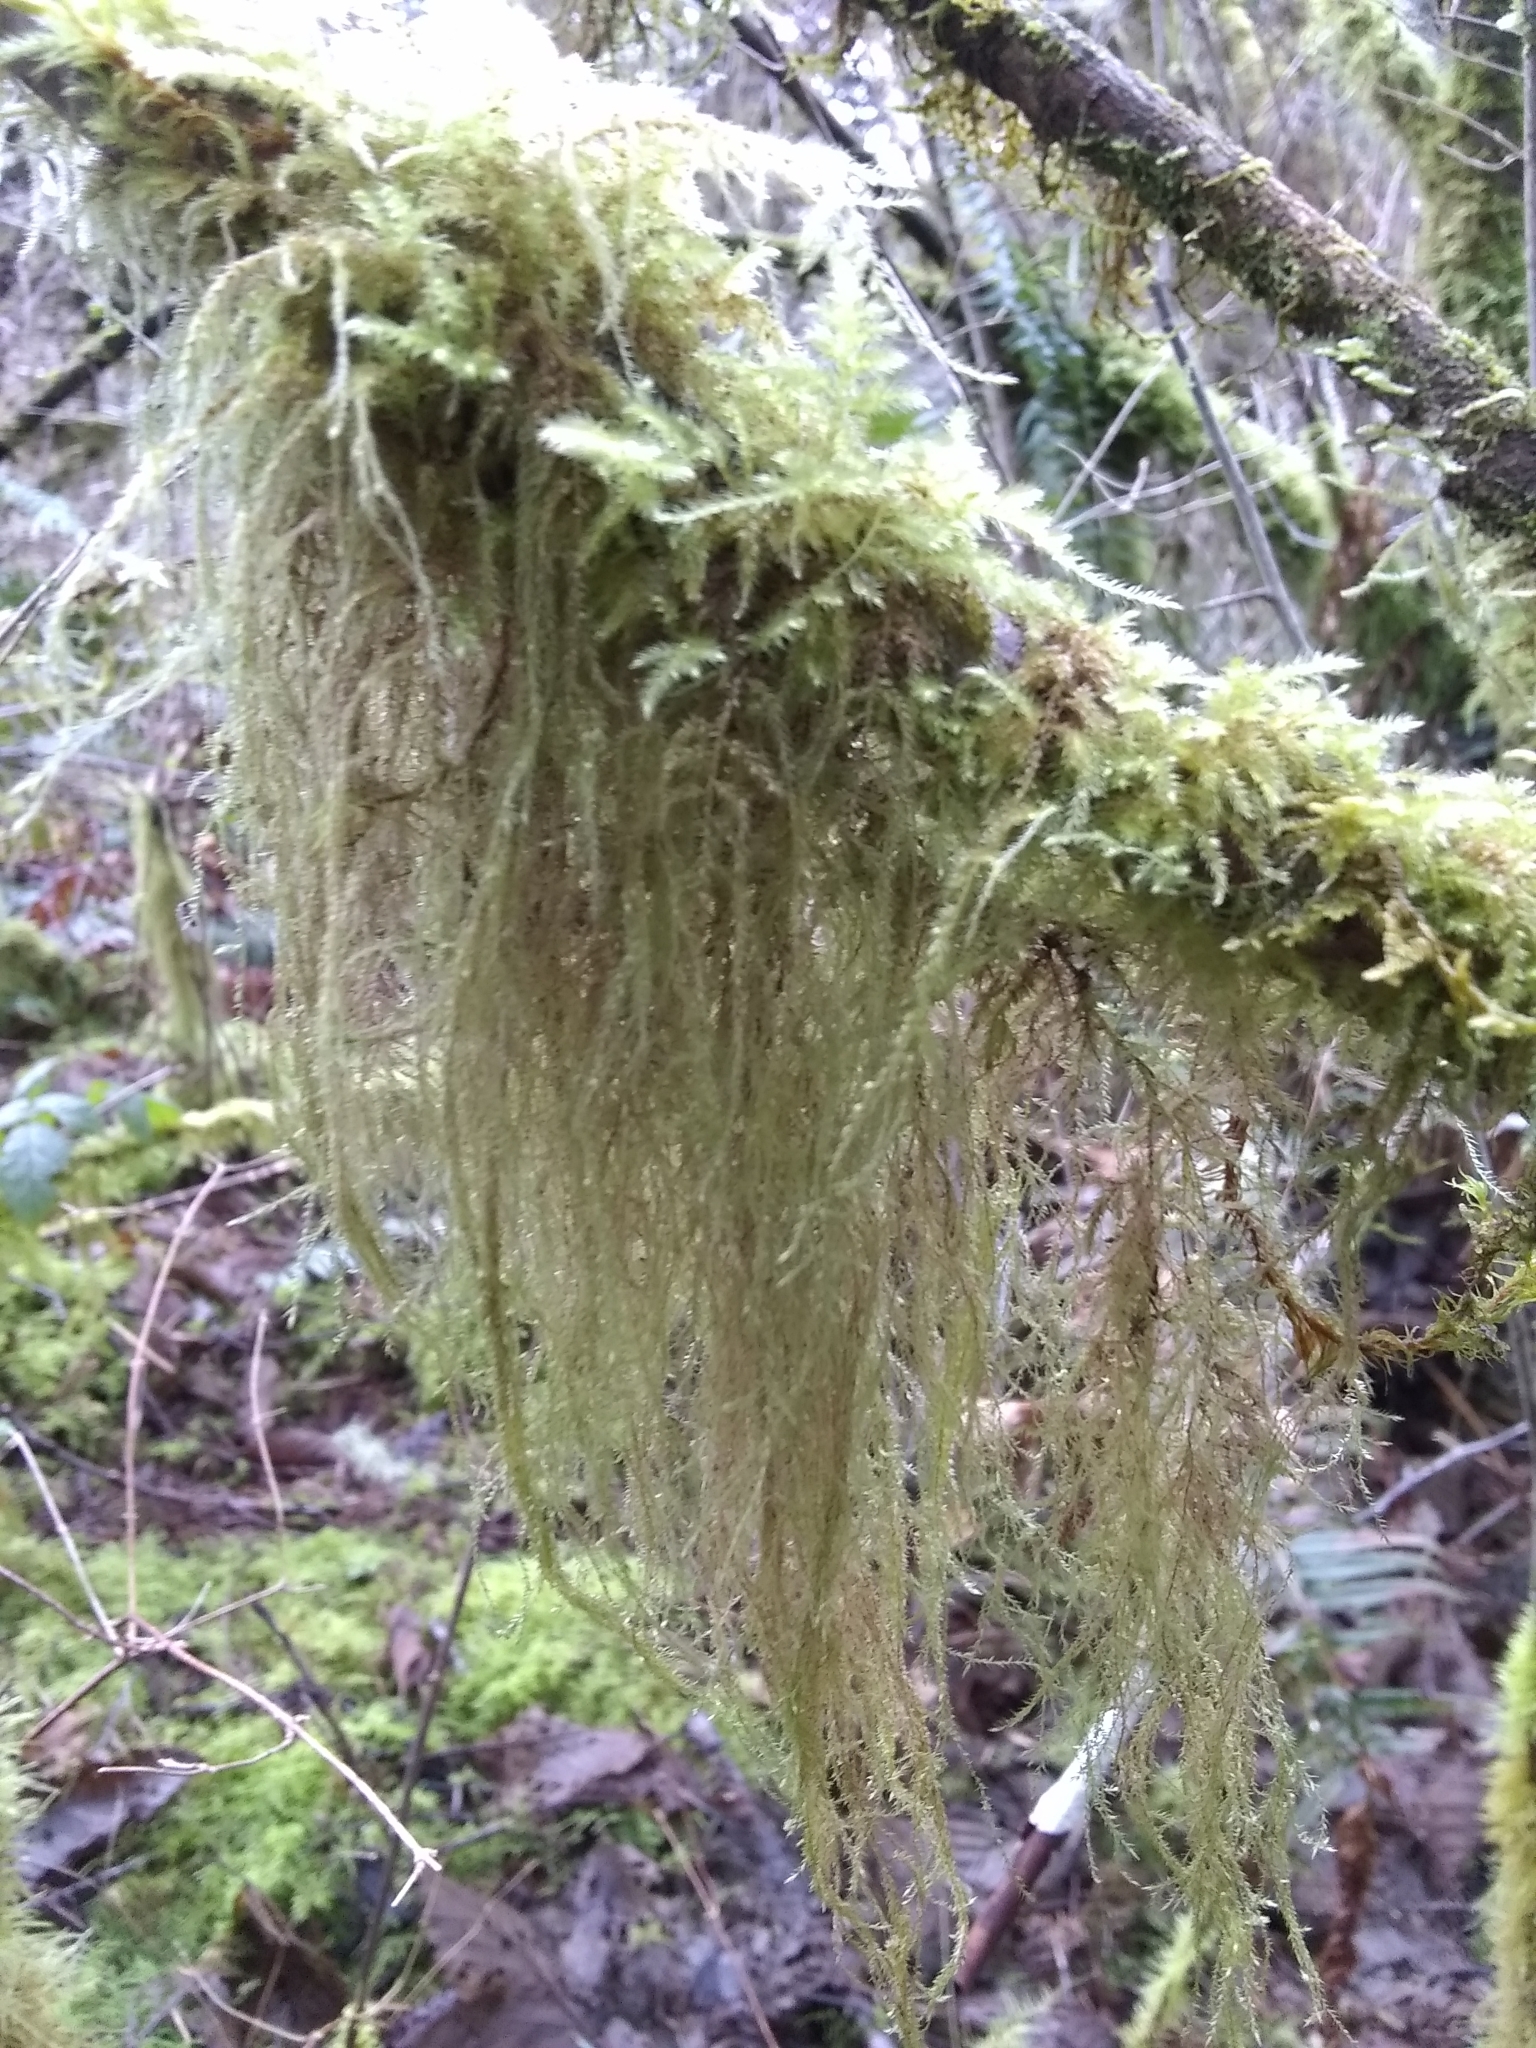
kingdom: Plantae
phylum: Bryophyta
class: Bryopsida
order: Hypnales
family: Lembophyllaceae
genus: Pseudisothecium
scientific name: Pseudisothecium myosuroides
